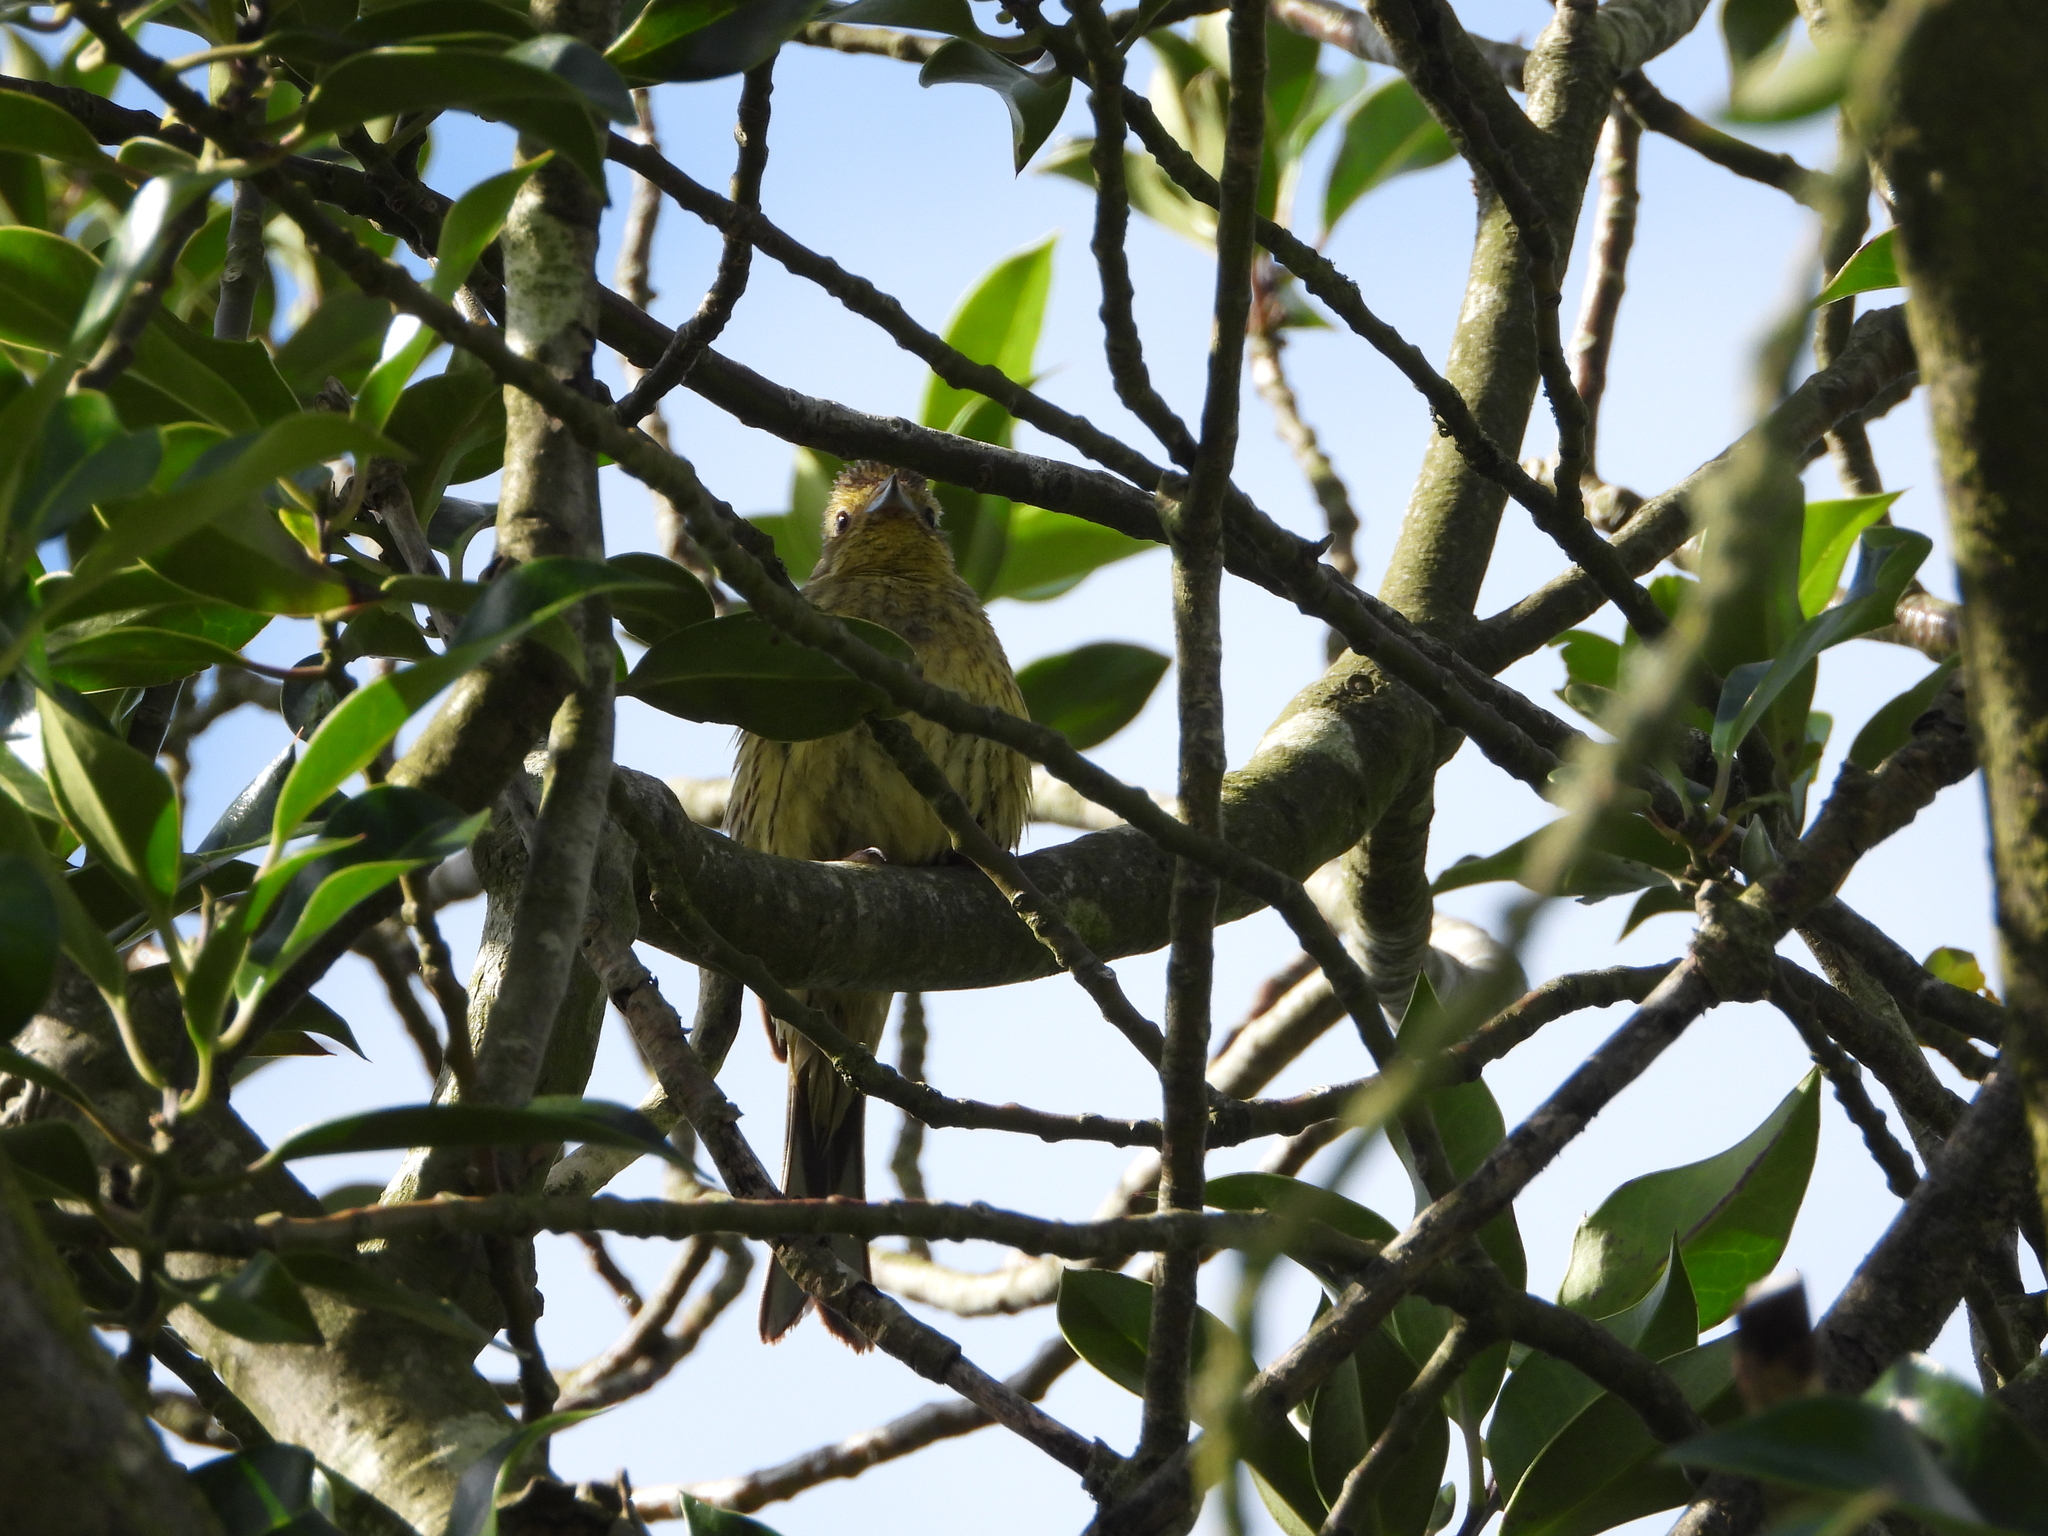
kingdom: Animalia
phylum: Chordata
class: Aves
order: Passeriformes
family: Emberizidae
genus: Emberiza
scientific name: Emberiza citrinella
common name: Yellowhammer
